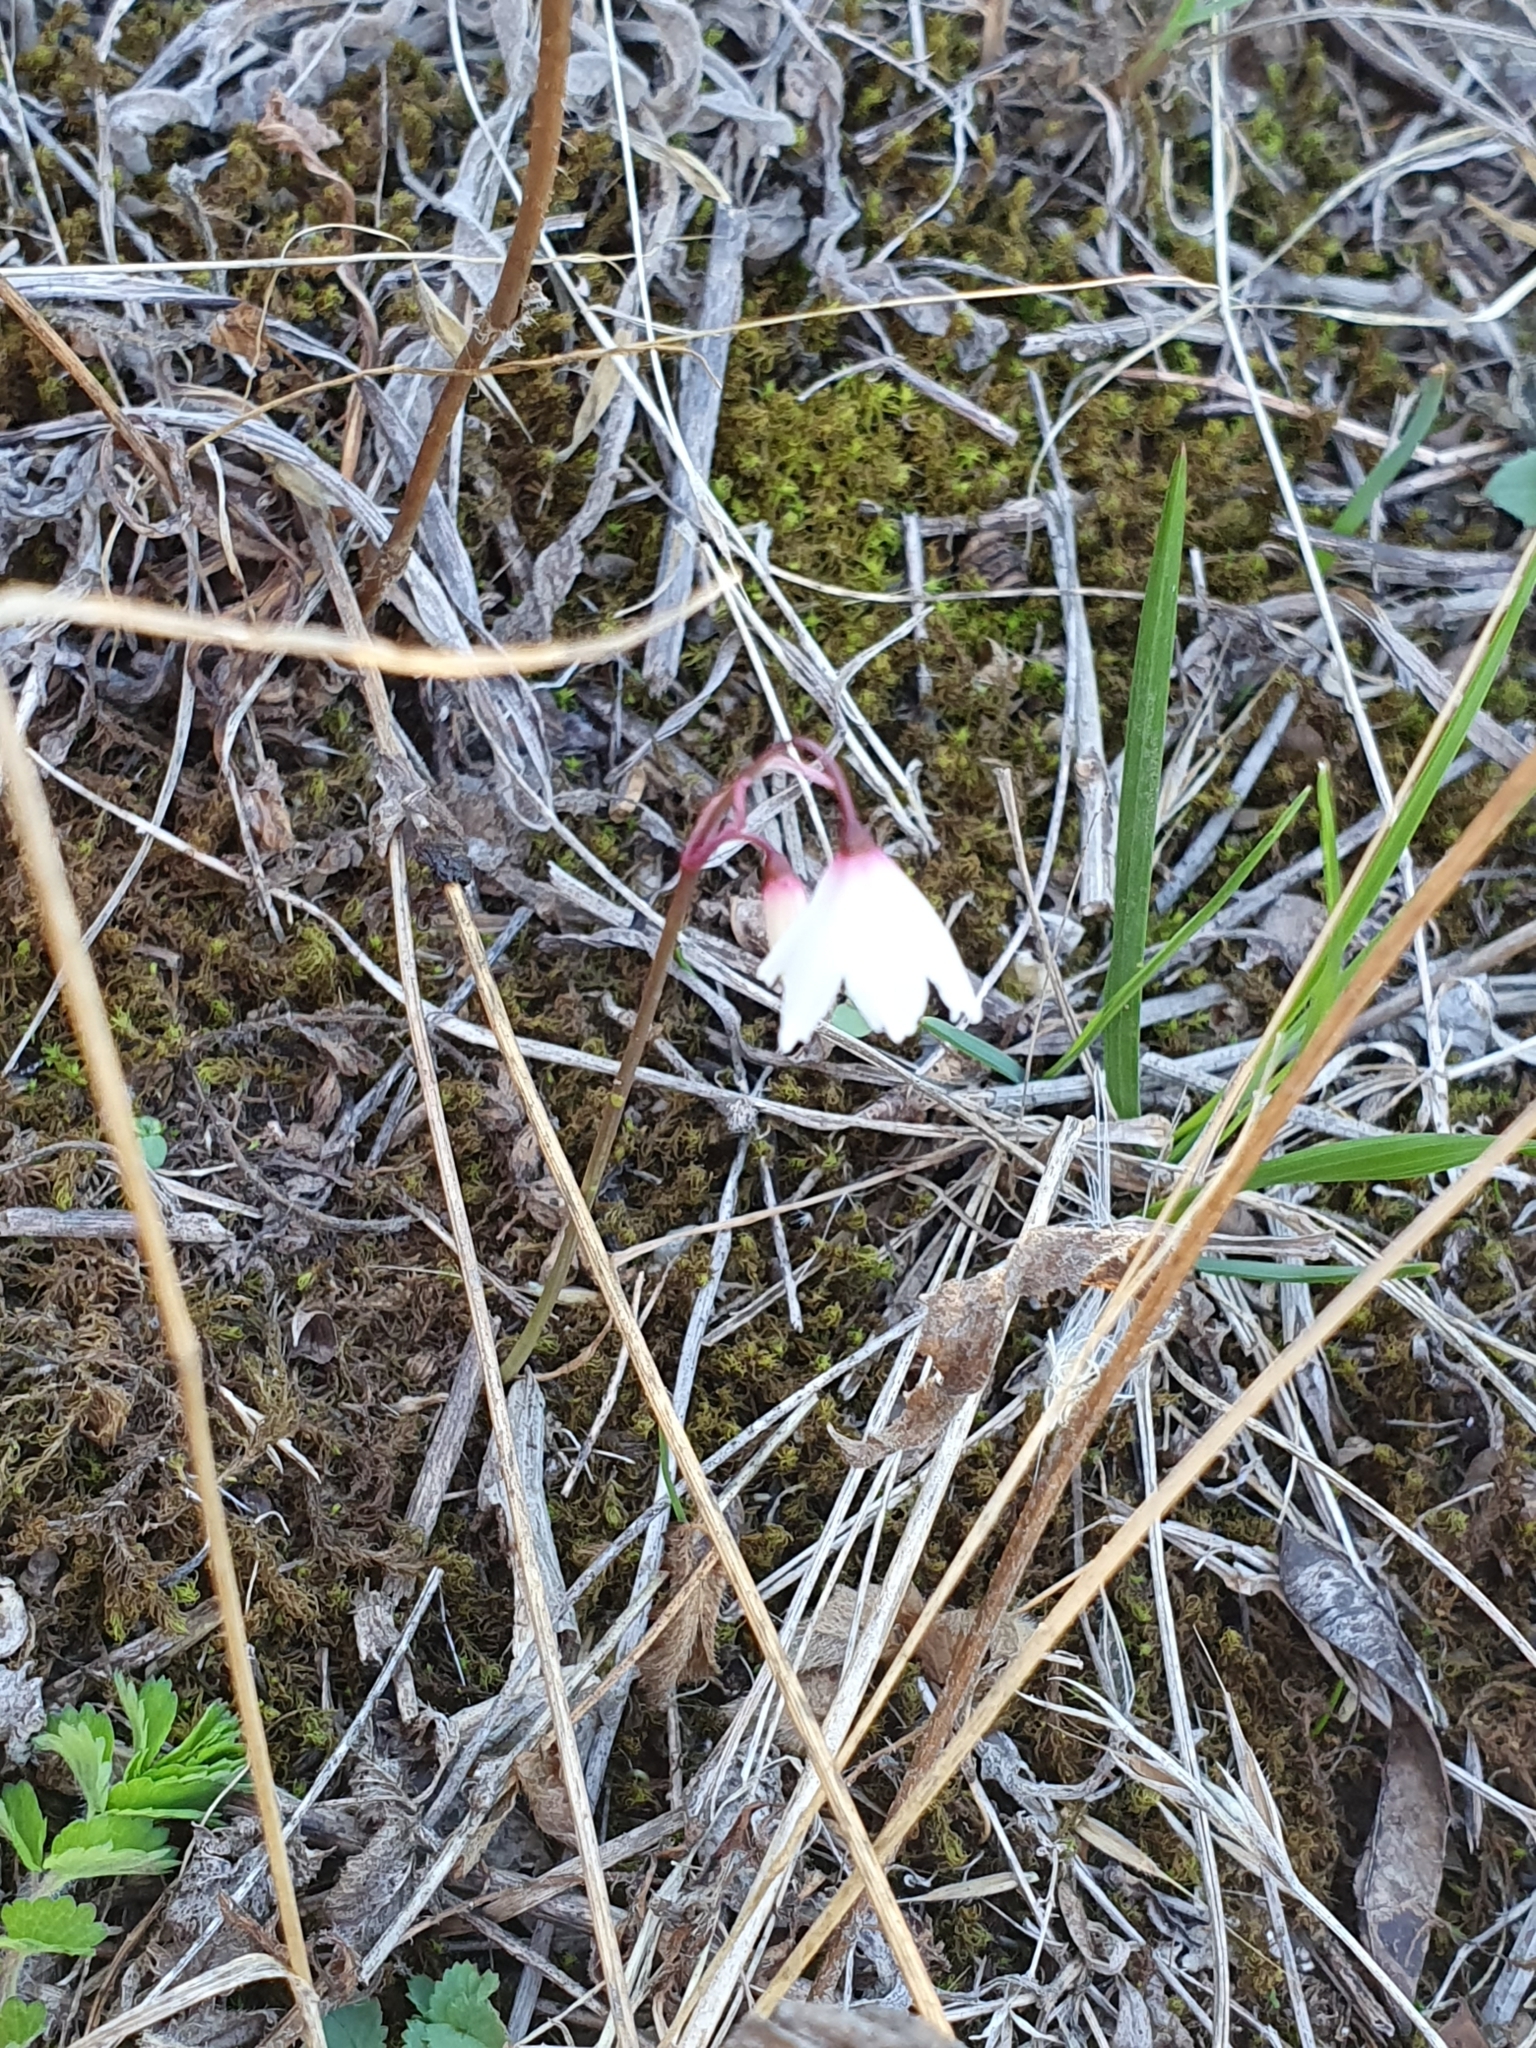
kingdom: Plantae
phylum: Tracheophyta
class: Liliopsida
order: Asparagales
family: Amaryllidaceae
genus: Acis
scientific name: Acis autumnalis
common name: Autumn snowflake
